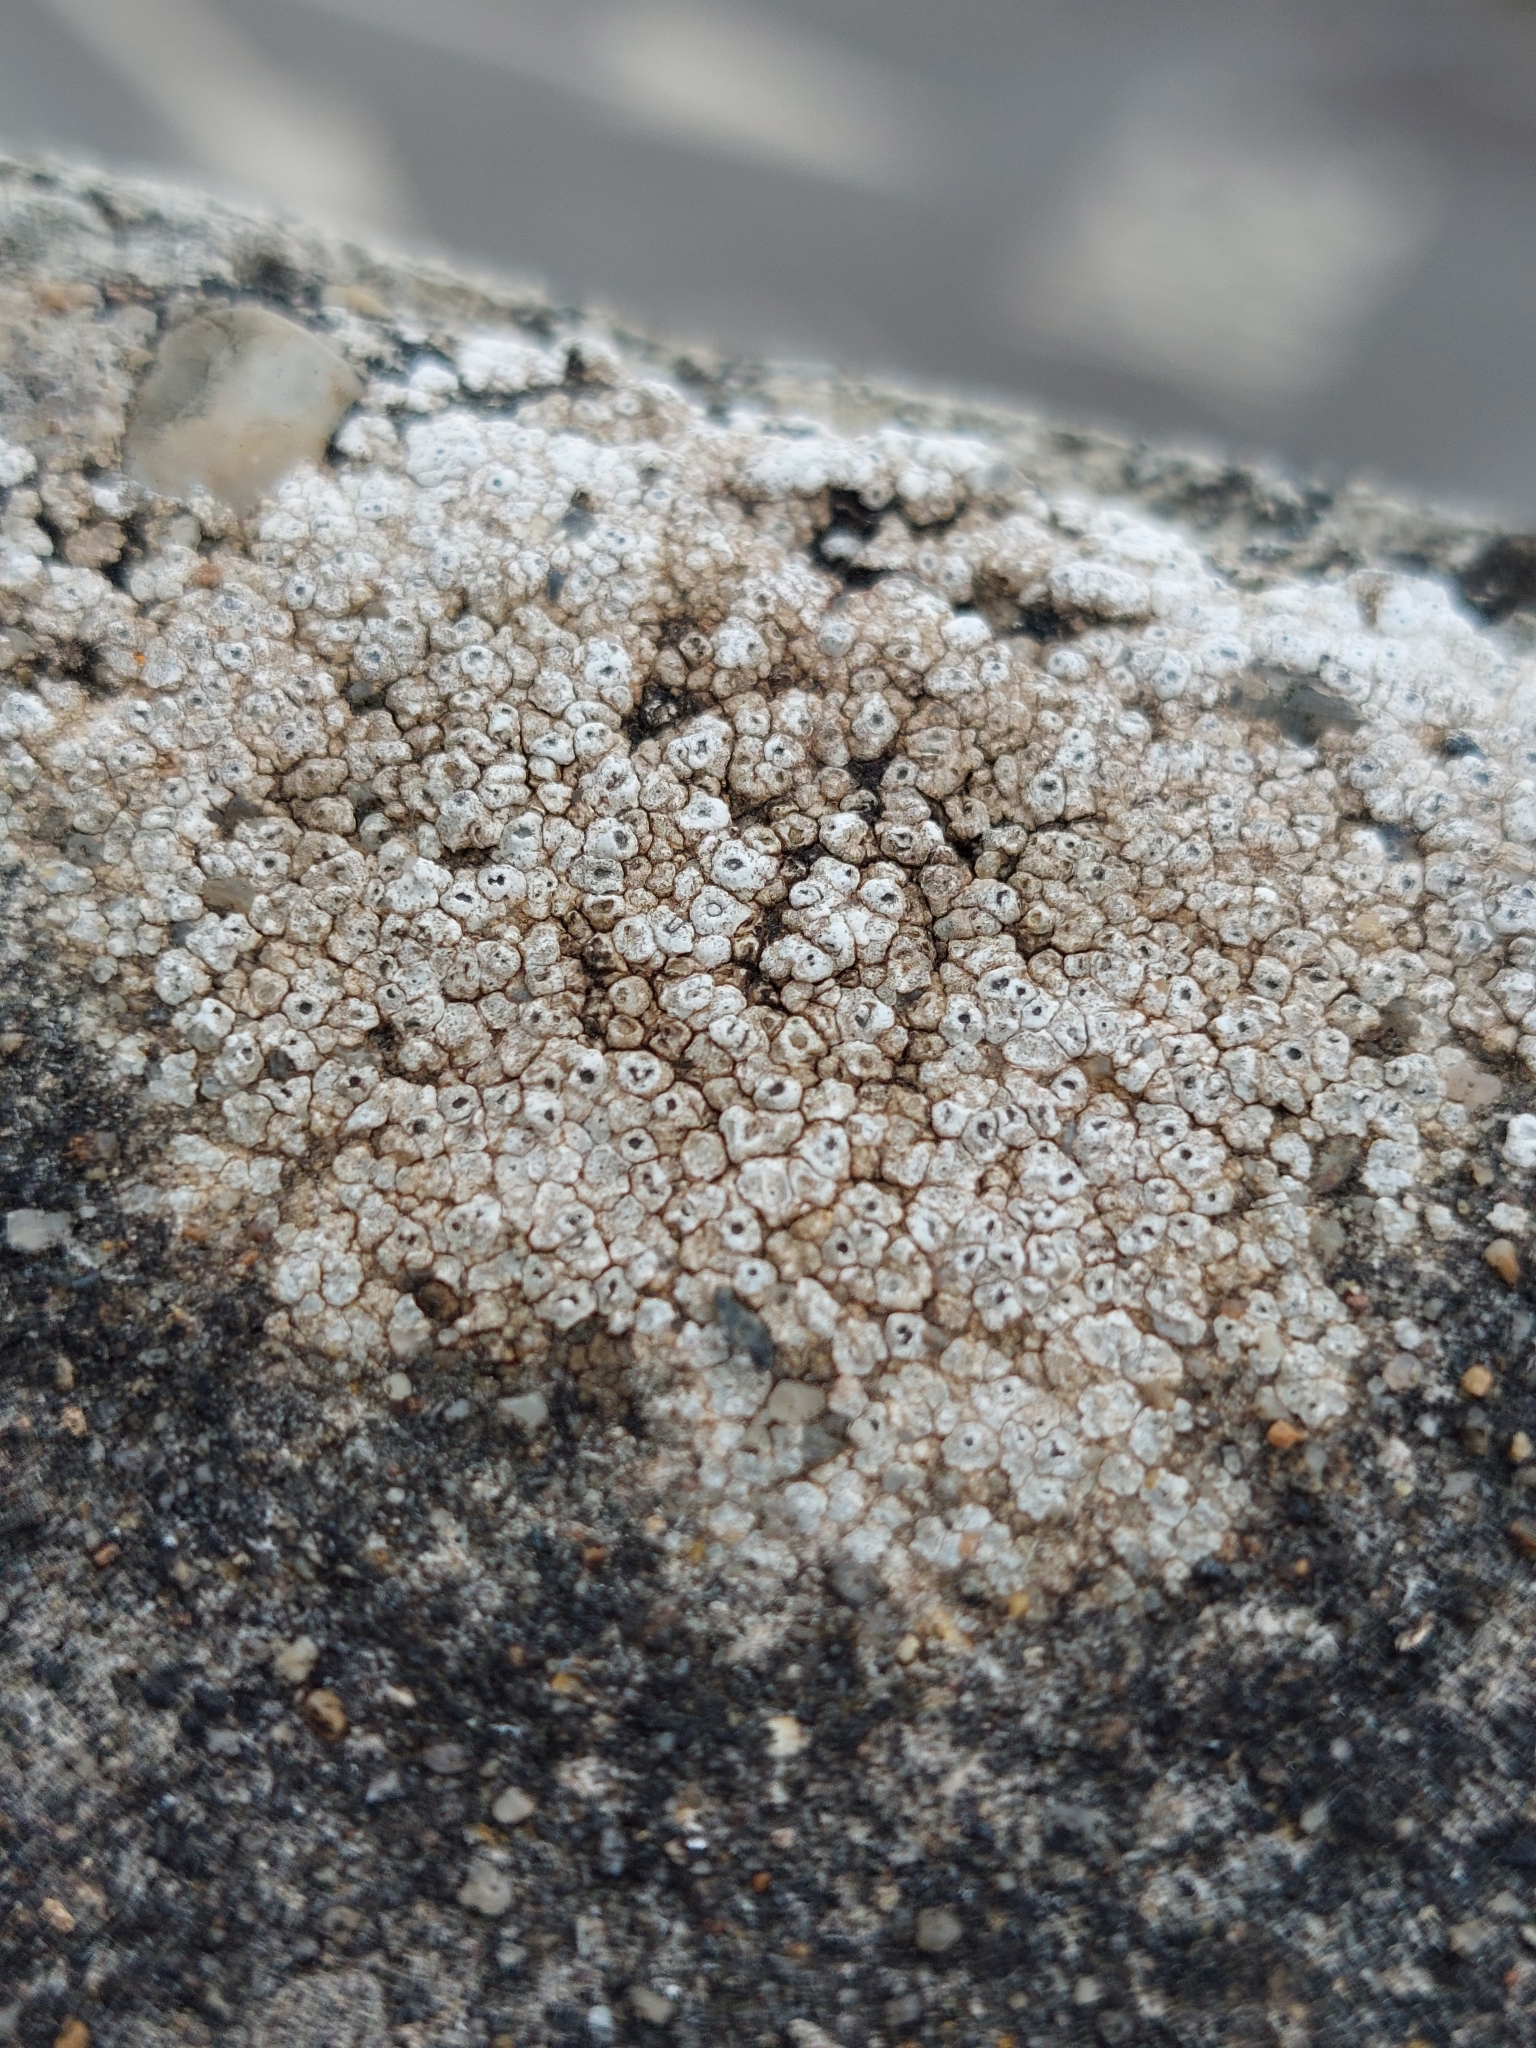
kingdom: Fungi
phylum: Ascomycota
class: Lecanoromycetes
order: Pertusariales
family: Megasporaceae
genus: Circinaria
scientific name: Circinaria calcarea
